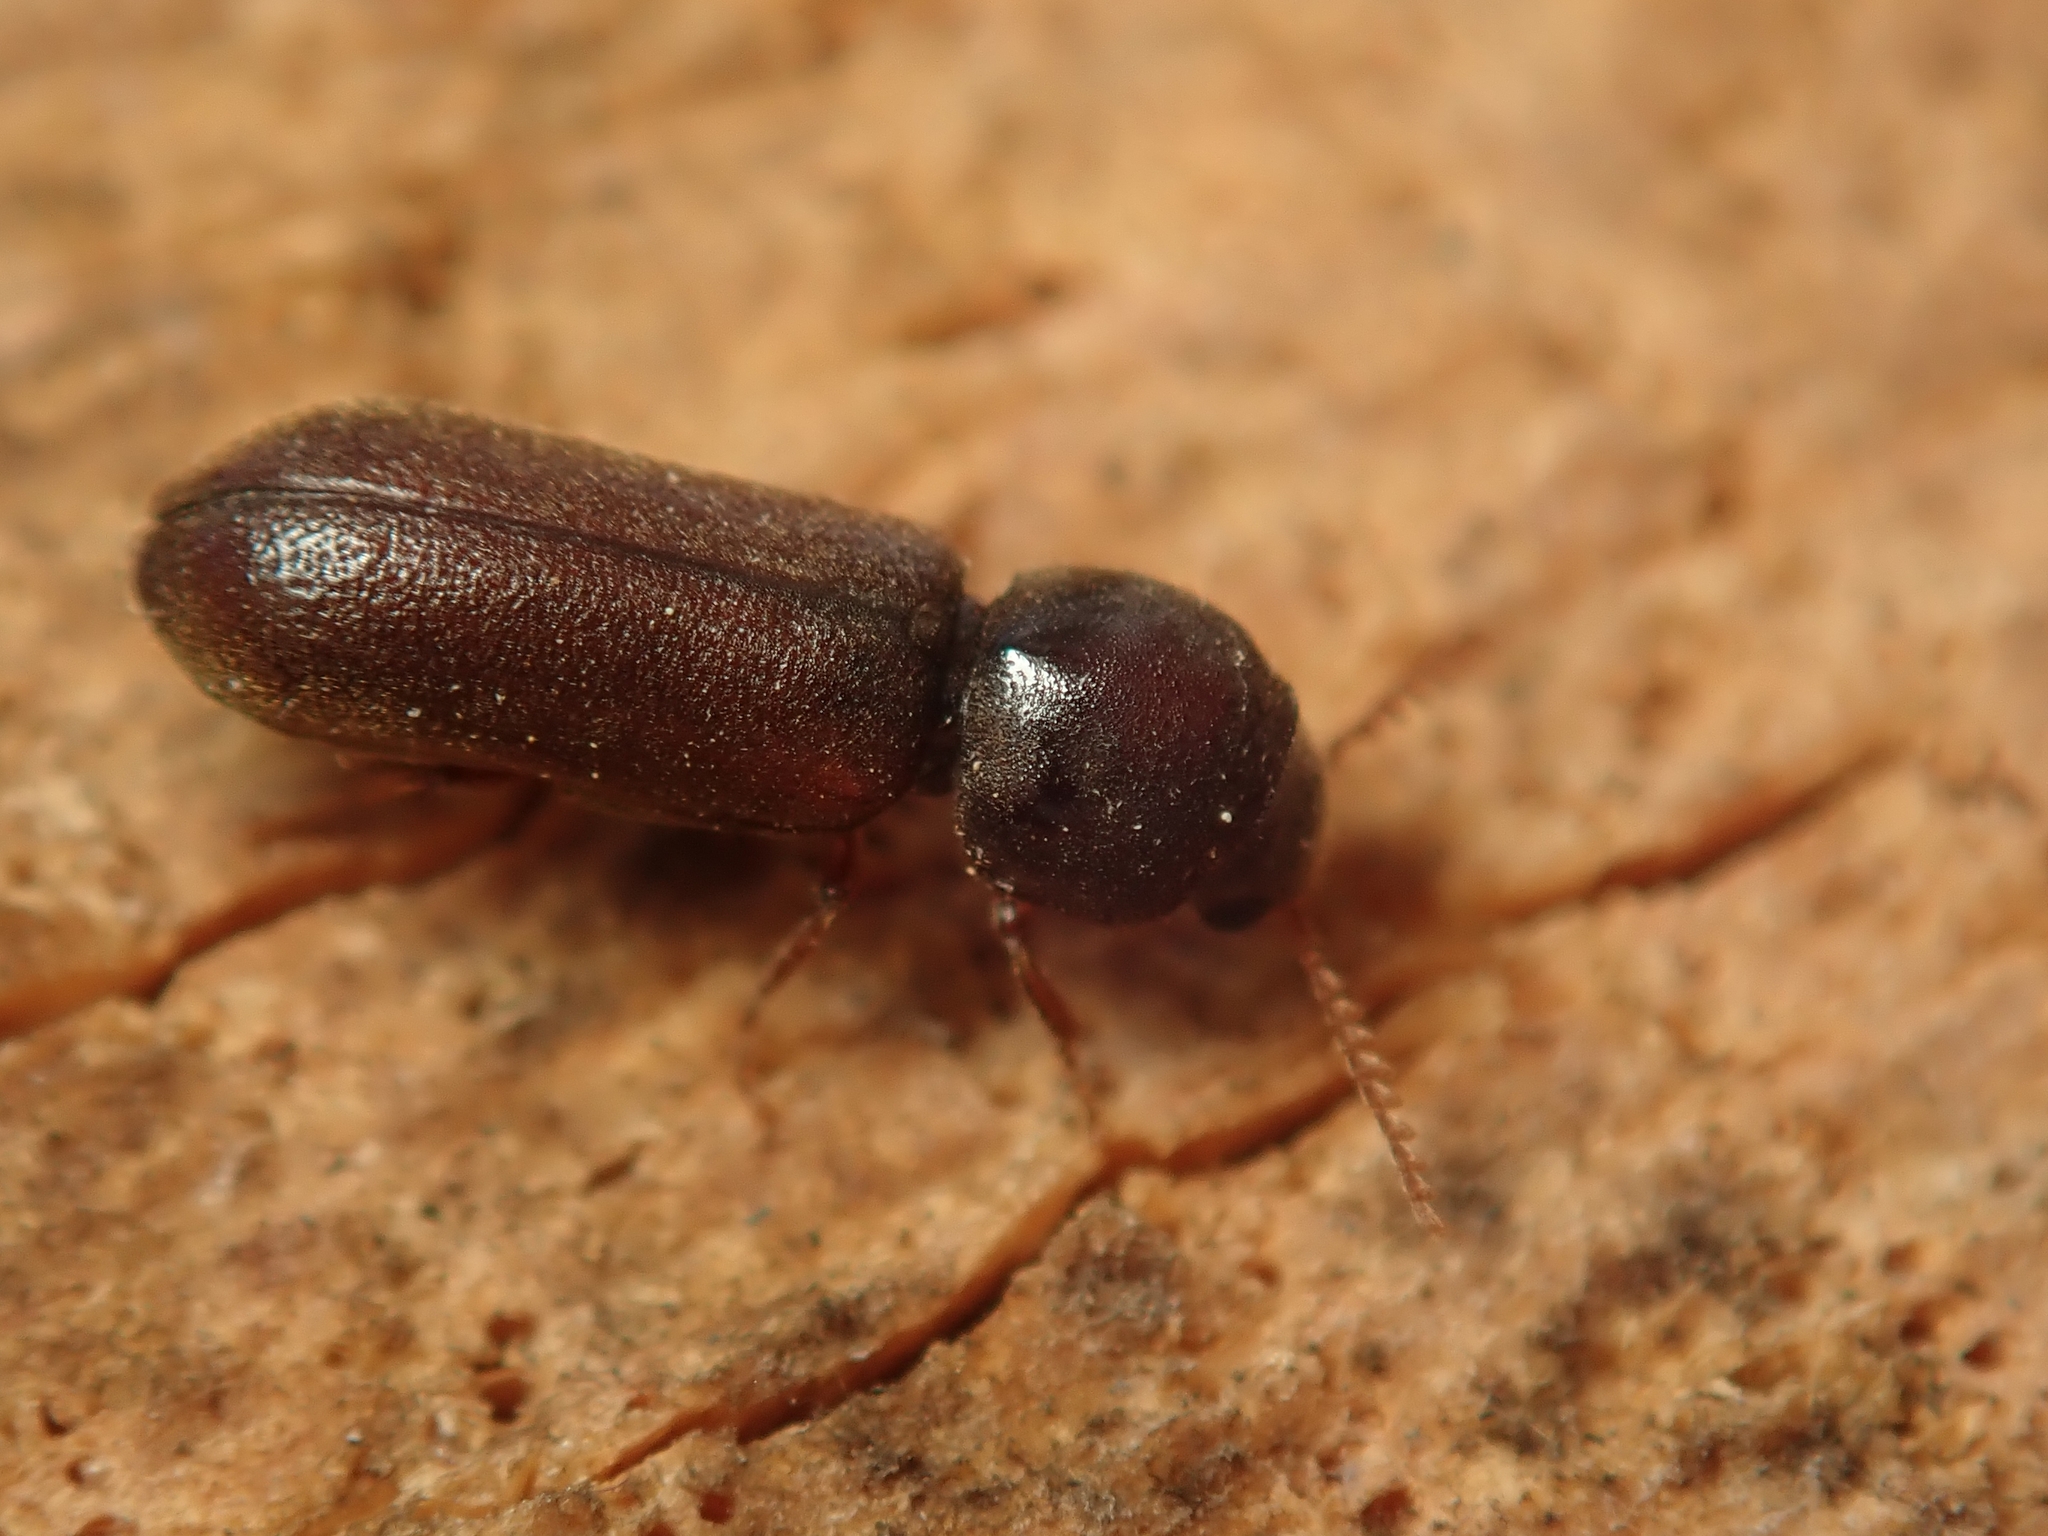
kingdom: Animalia
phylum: Arthropoda
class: Insecta
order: Coleoptera
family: Anobiidae
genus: Ptilinus
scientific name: Ptilinus pectinicornis
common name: Fan-bearing wood-borer
